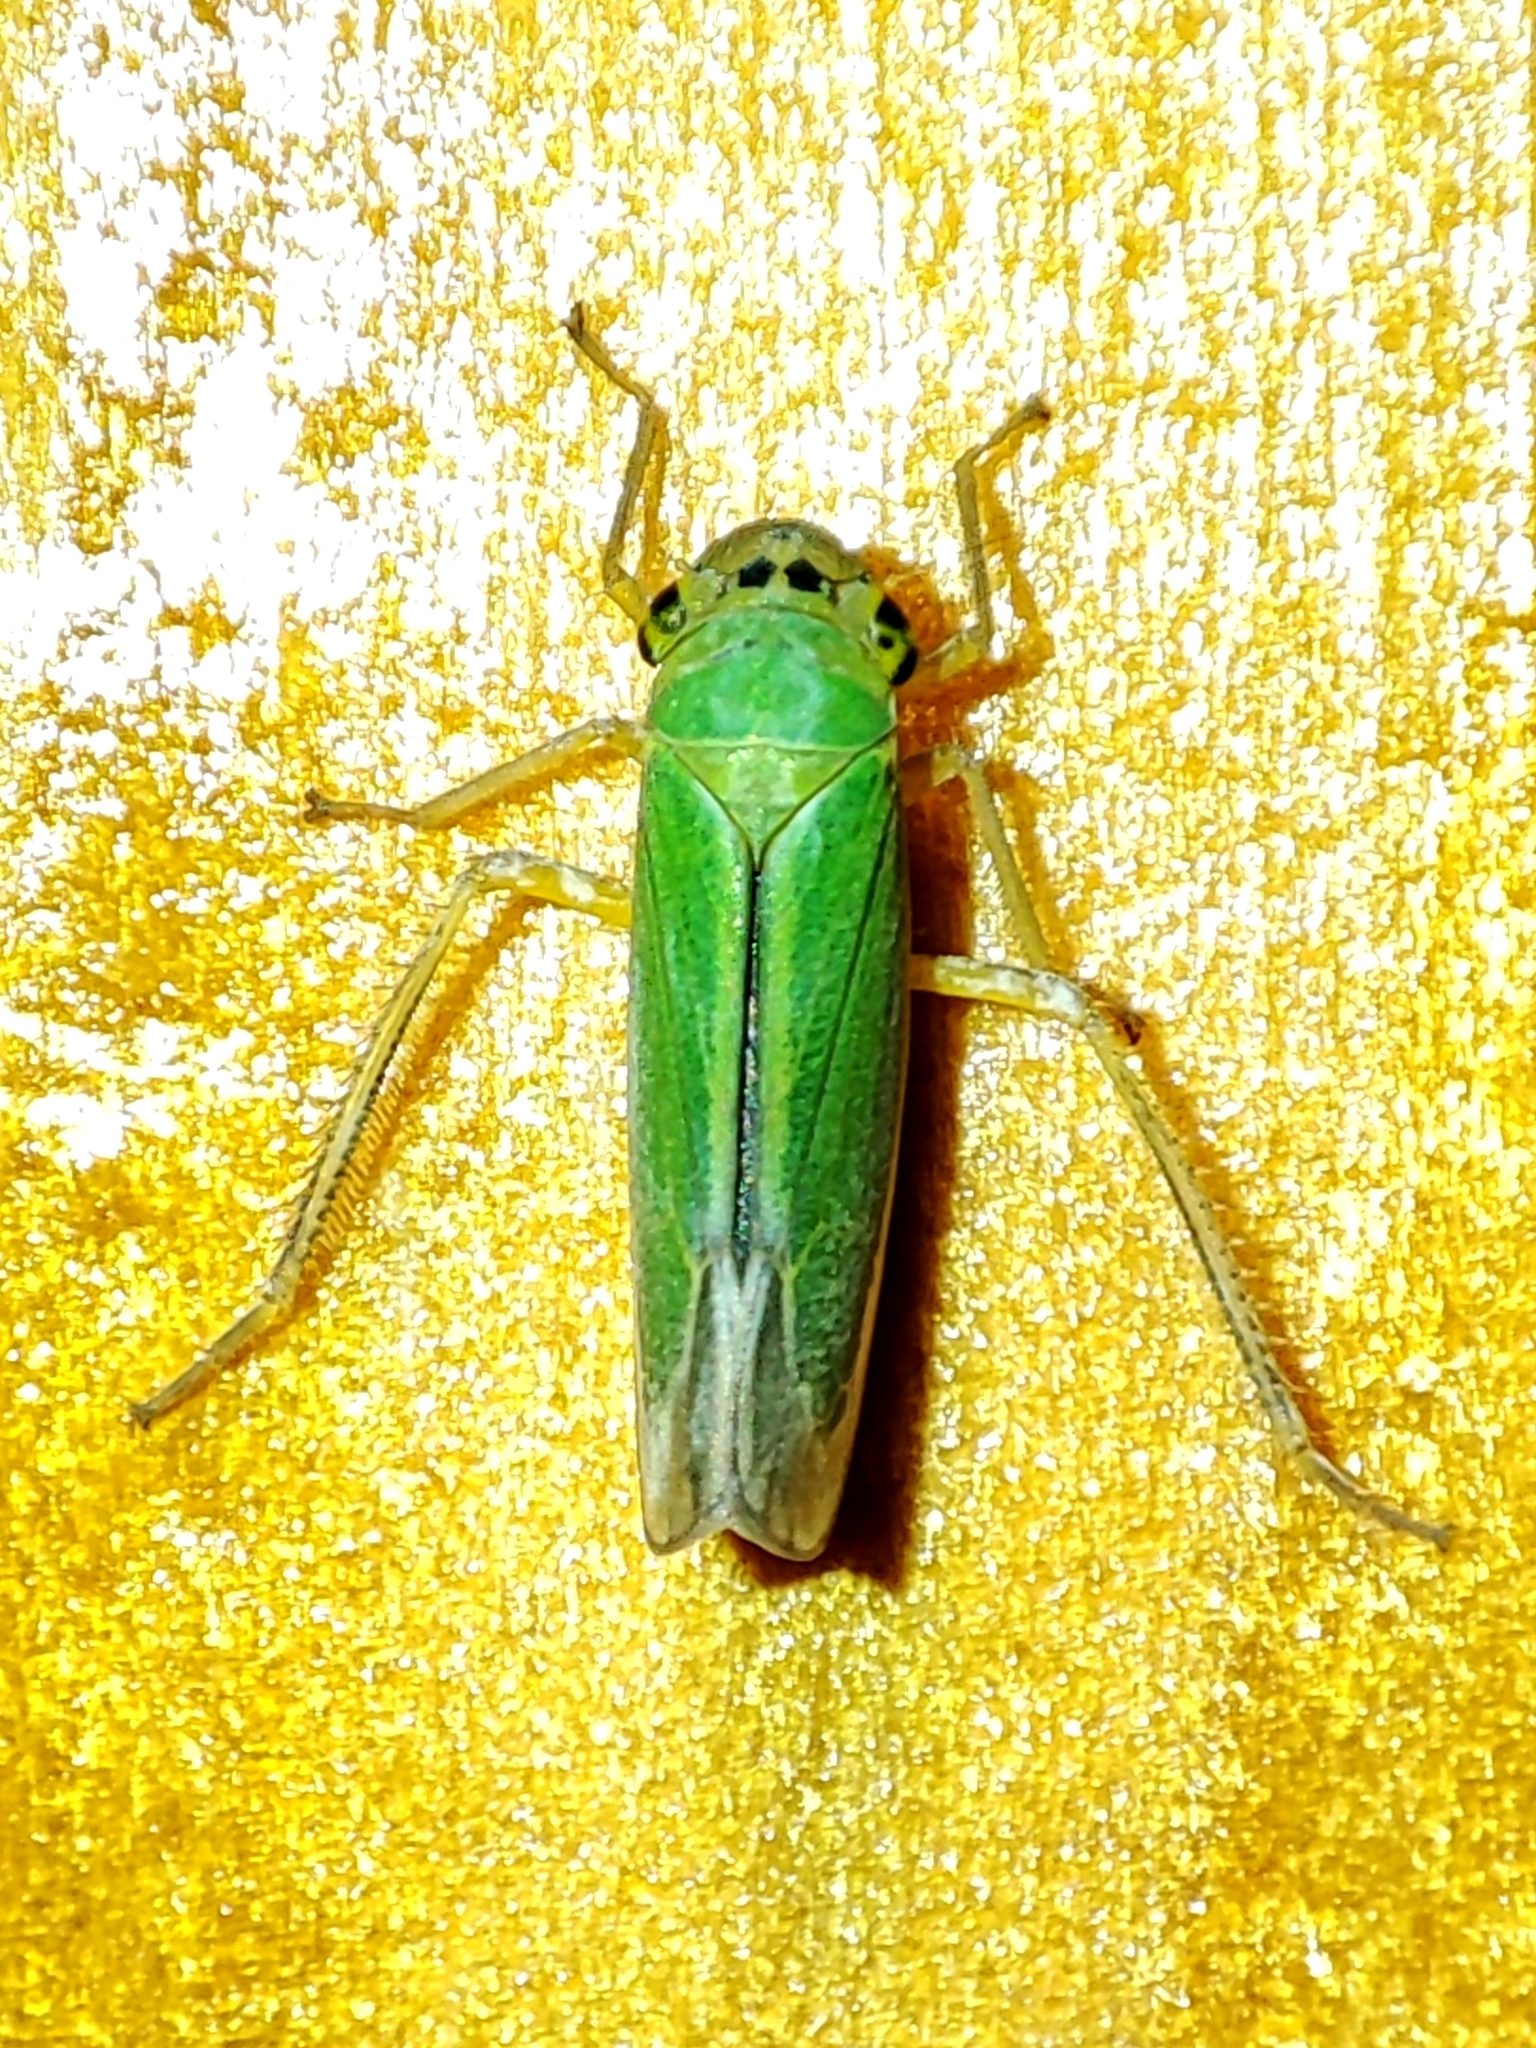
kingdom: Animalia
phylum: Arthropoda
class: Insecta
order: Hemiptera
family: Cicadellidae
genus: Cicadella
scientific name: Cicadella viridis
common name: Leafhopper
